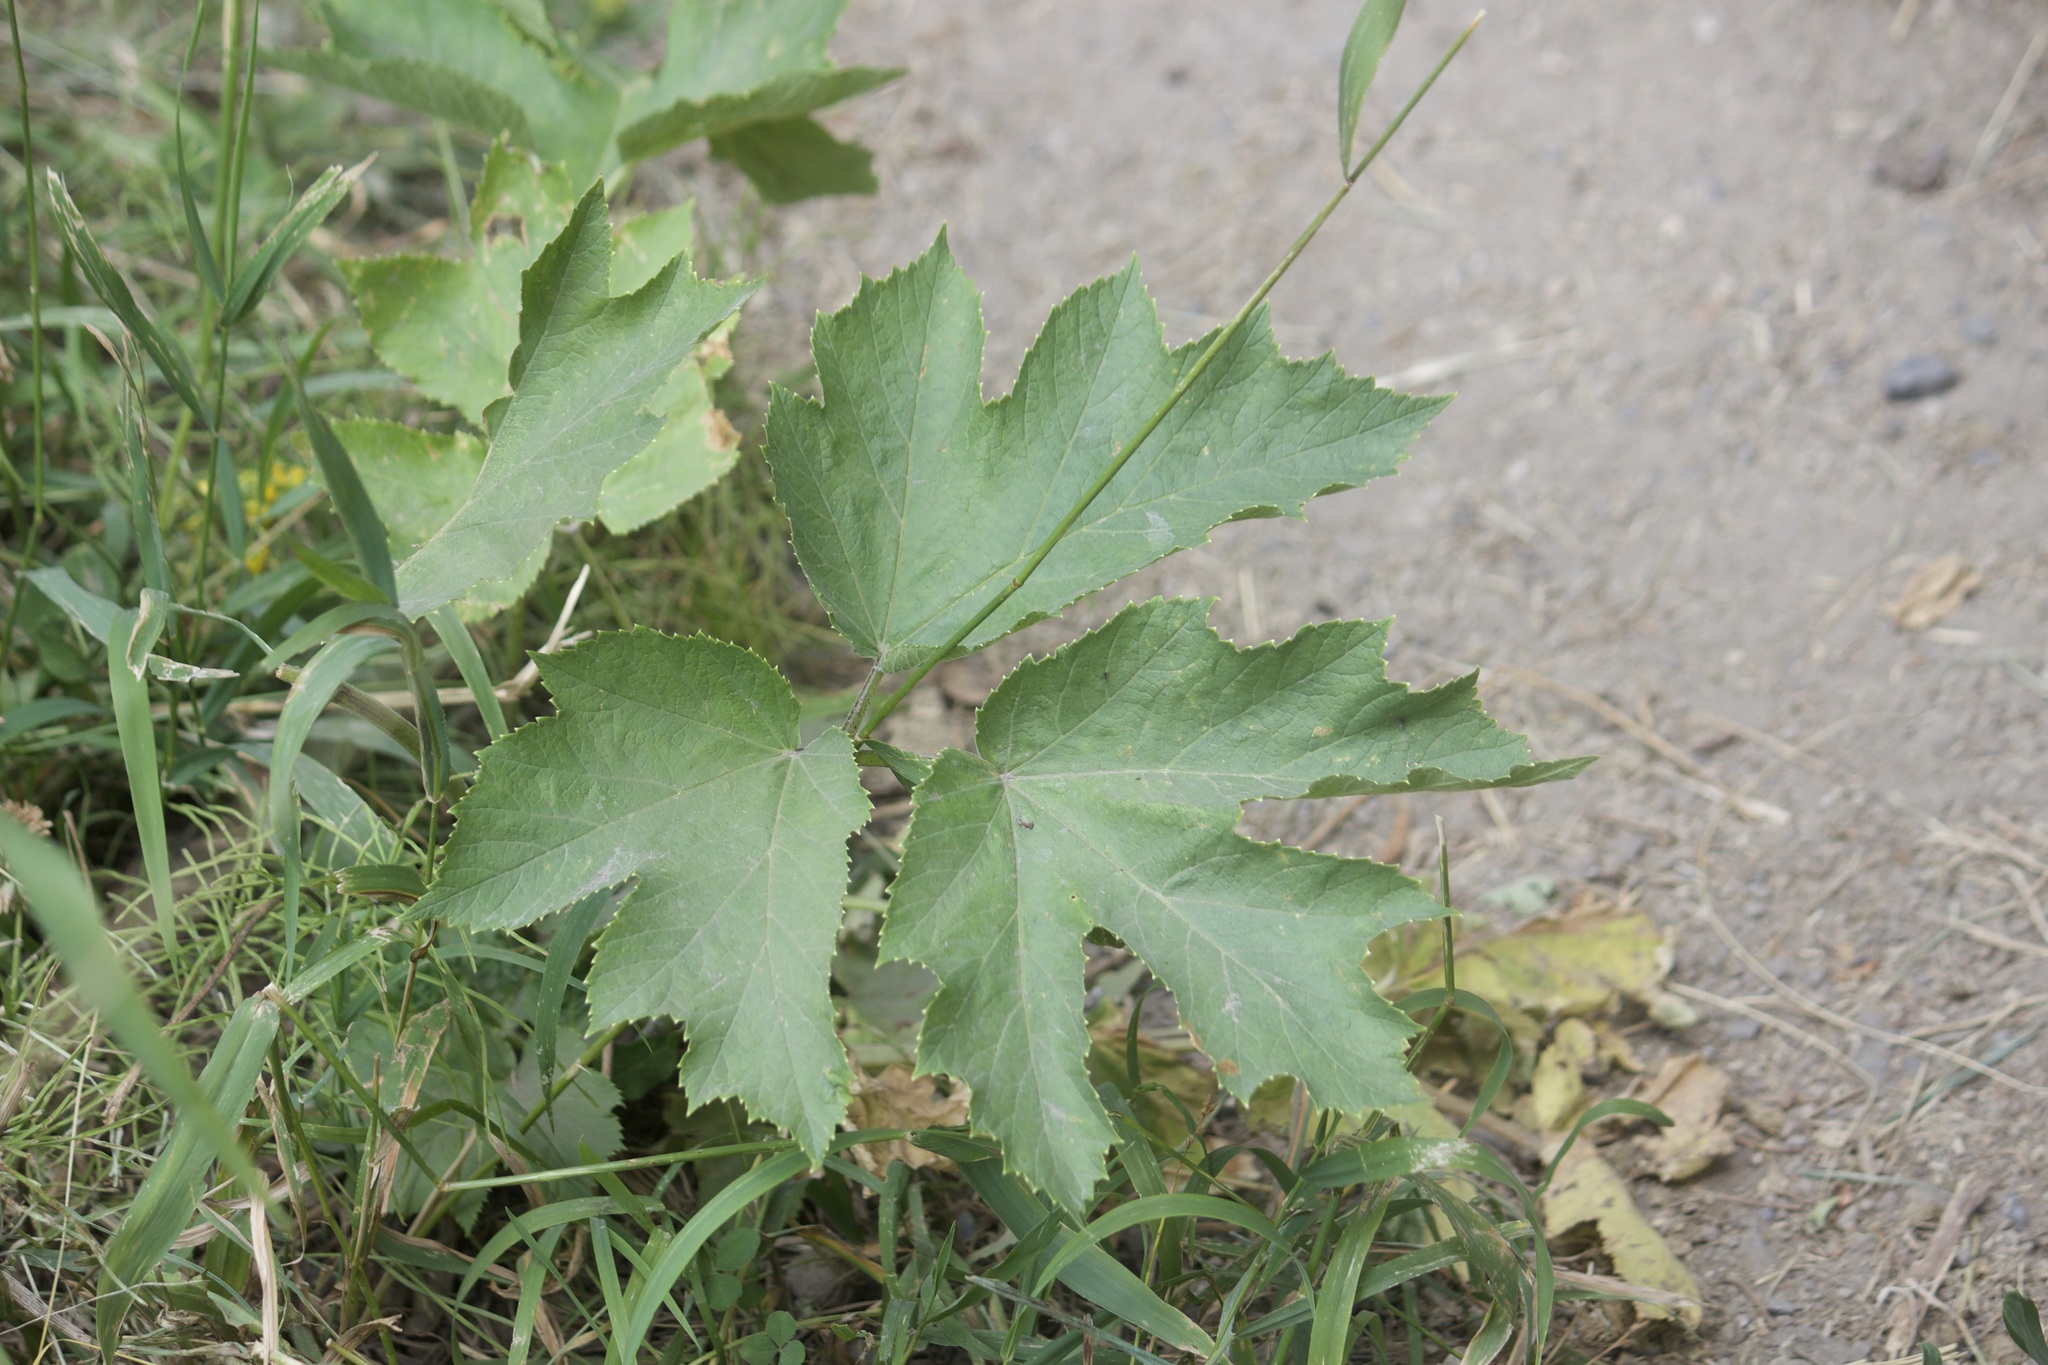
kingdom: Plantae
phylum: Tracheophyta
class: Magnoliopsida
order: Apiales
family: Apiaceae
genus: Heracleum
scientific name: Heracleum maximum
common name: American cow parsnip
